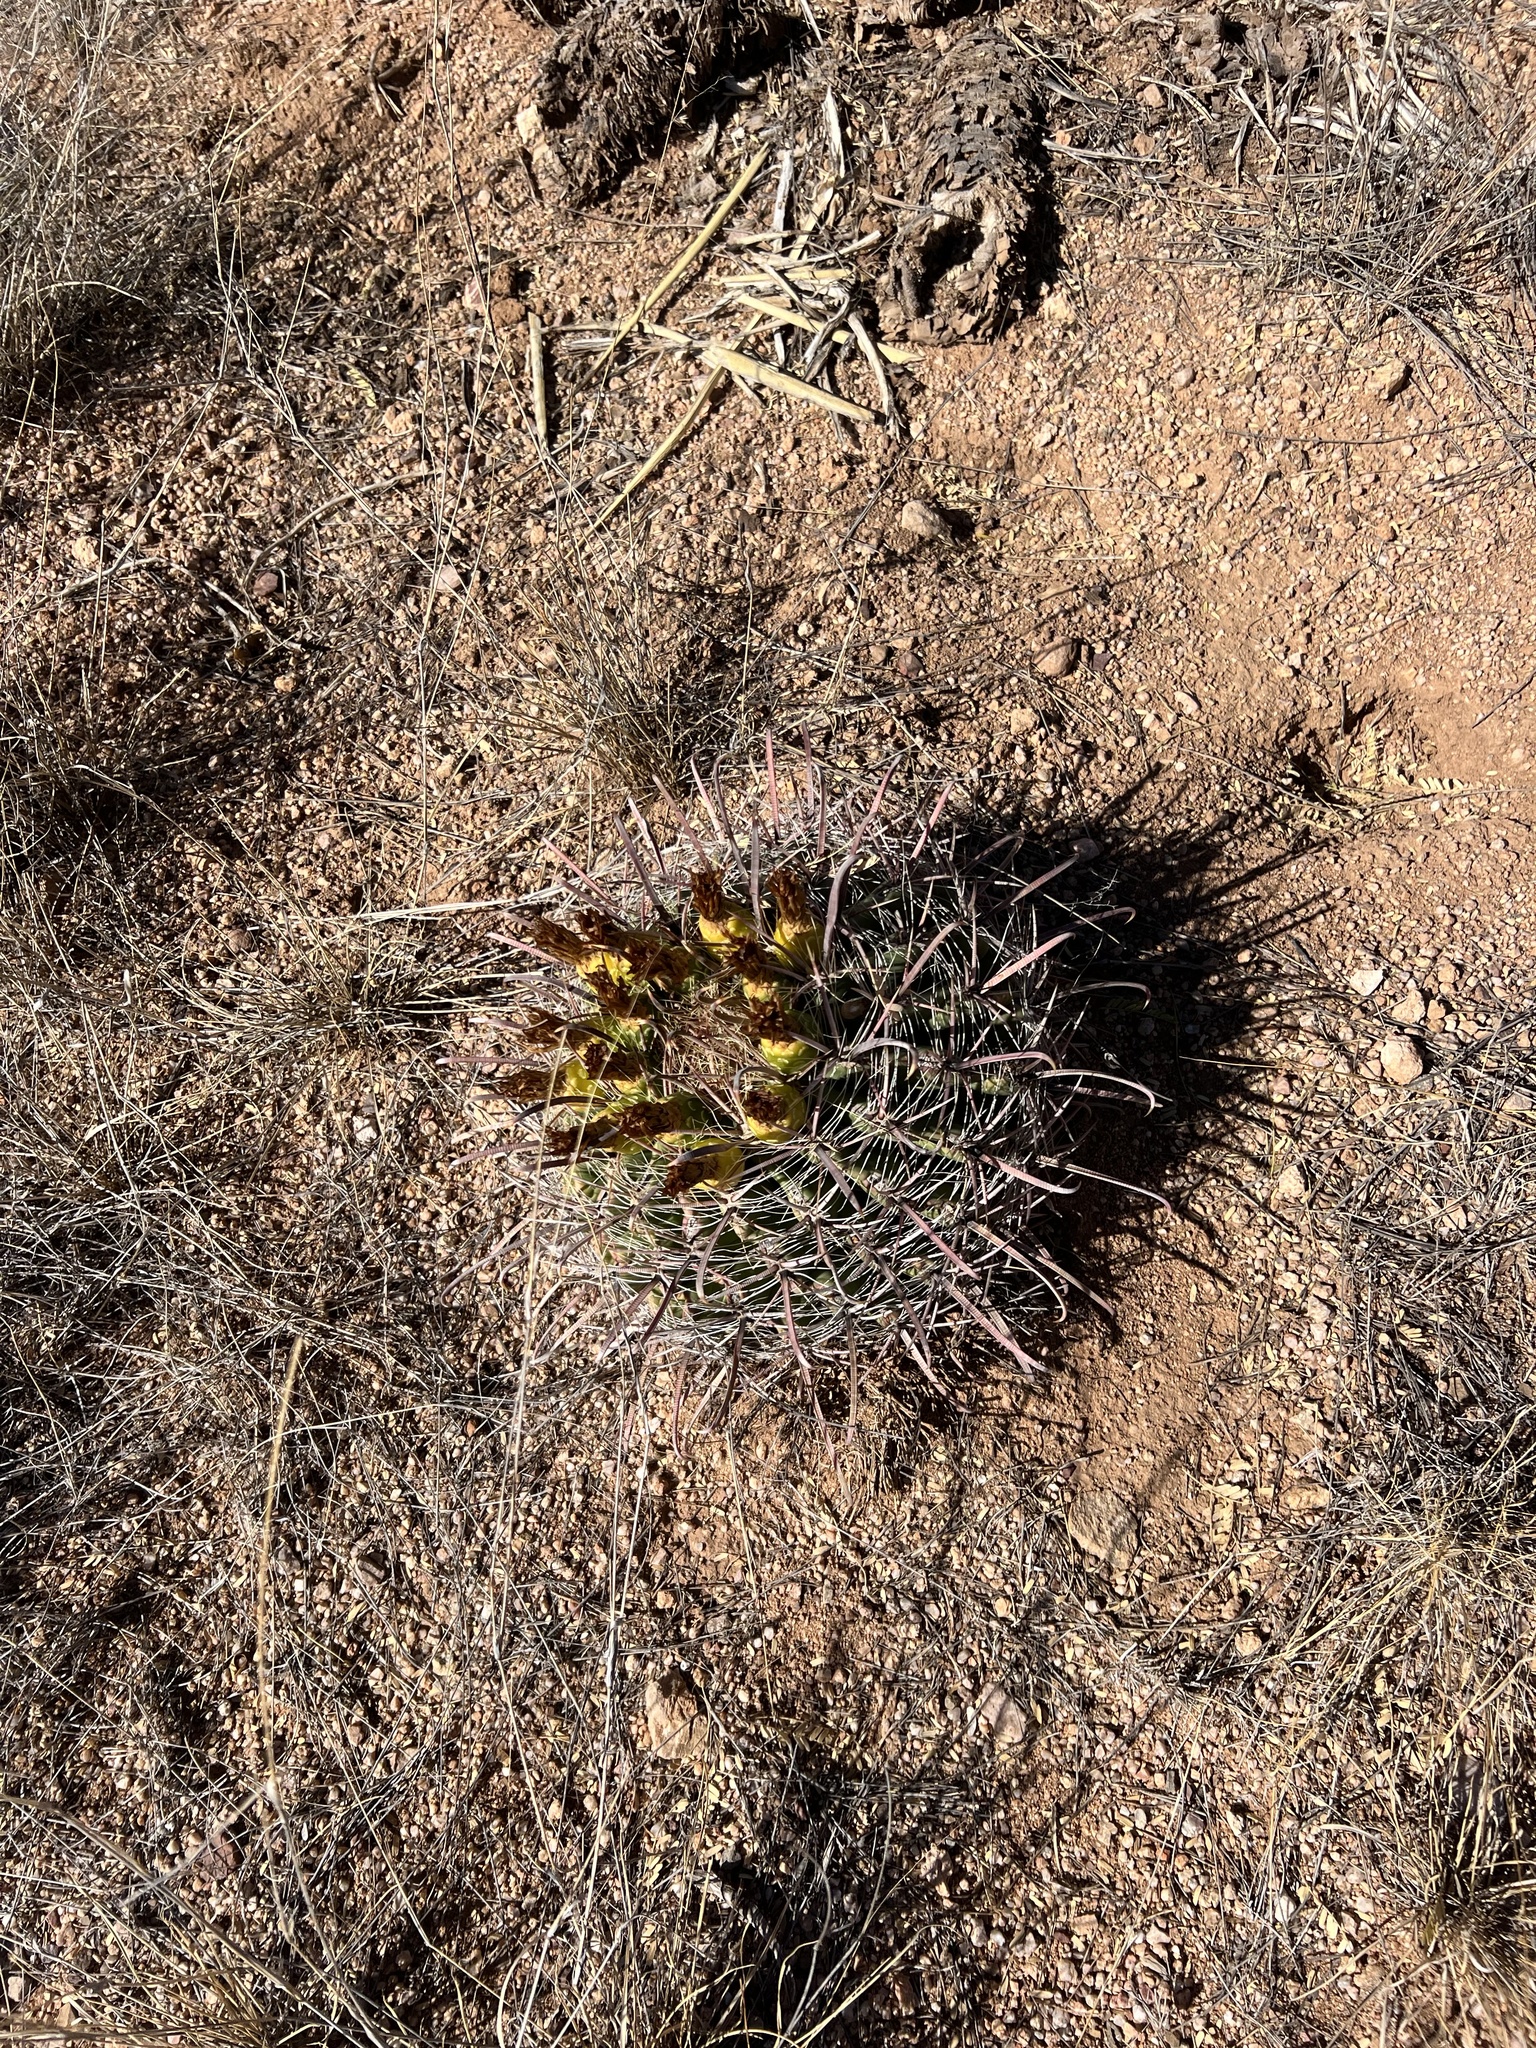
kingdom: Plantae
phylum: Tracheophyta
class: Magnoliopsida
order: Caryophyllales
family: Cactaceae
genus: Ferocactus
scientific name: Ferocactus wislizeni
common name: Candy barrel cactus
